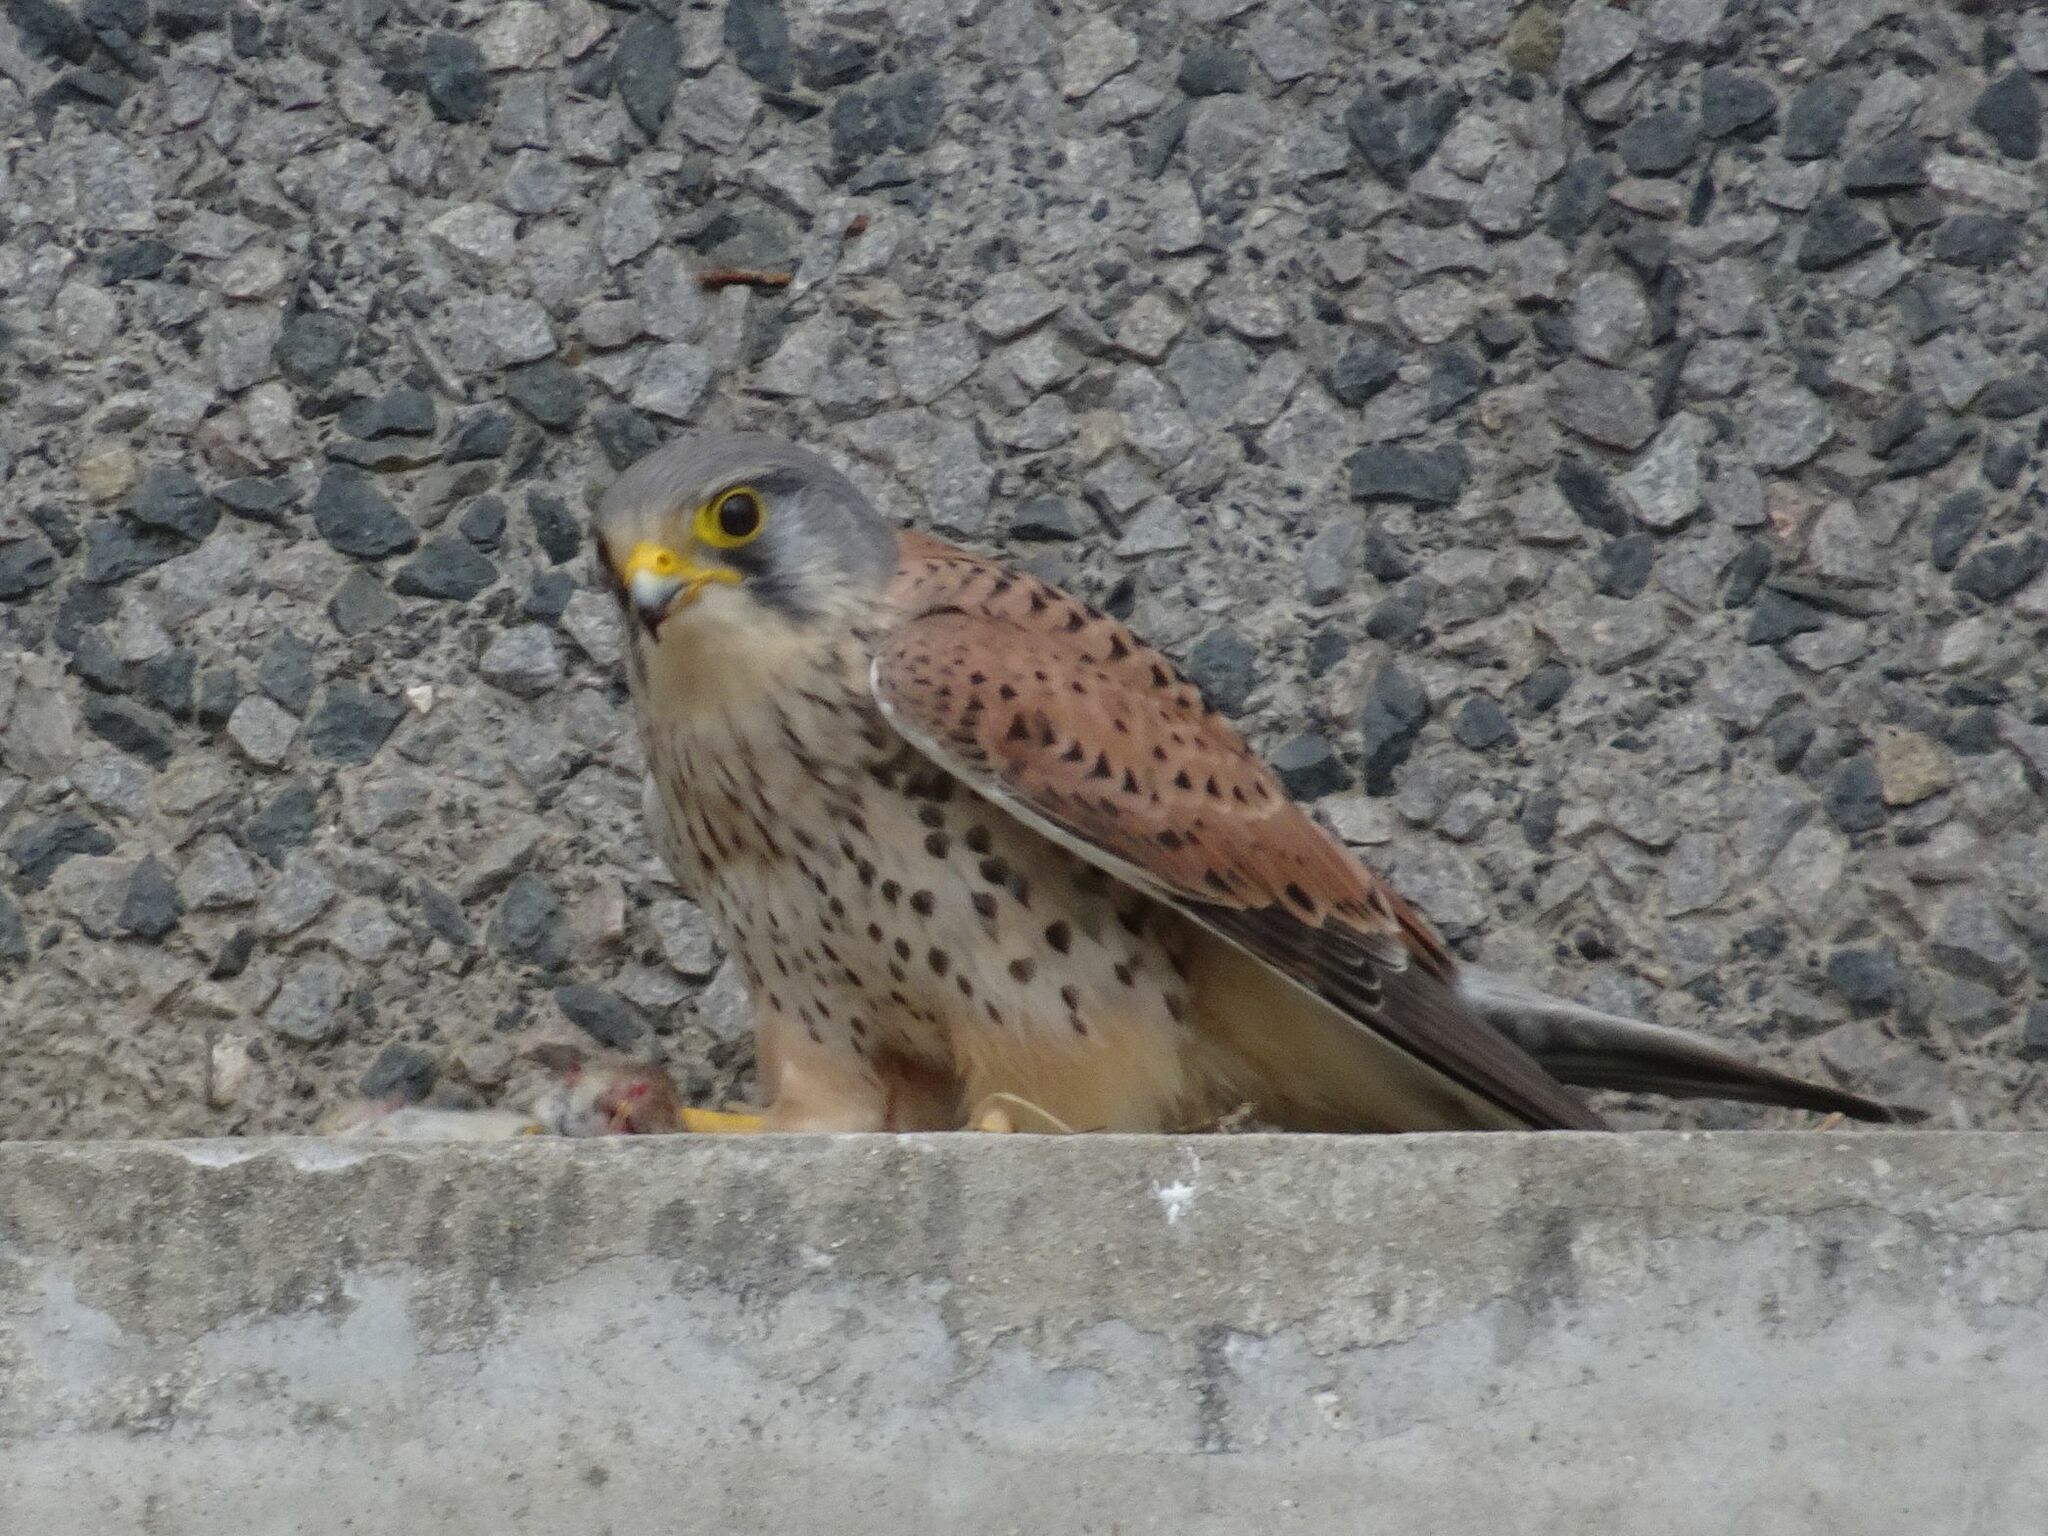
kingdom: Animalia
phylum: Chordata
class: Aves
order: Falconiformes
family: Falconidae
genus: Falco
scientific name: Falco tinnunculus
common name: Common kestrel
